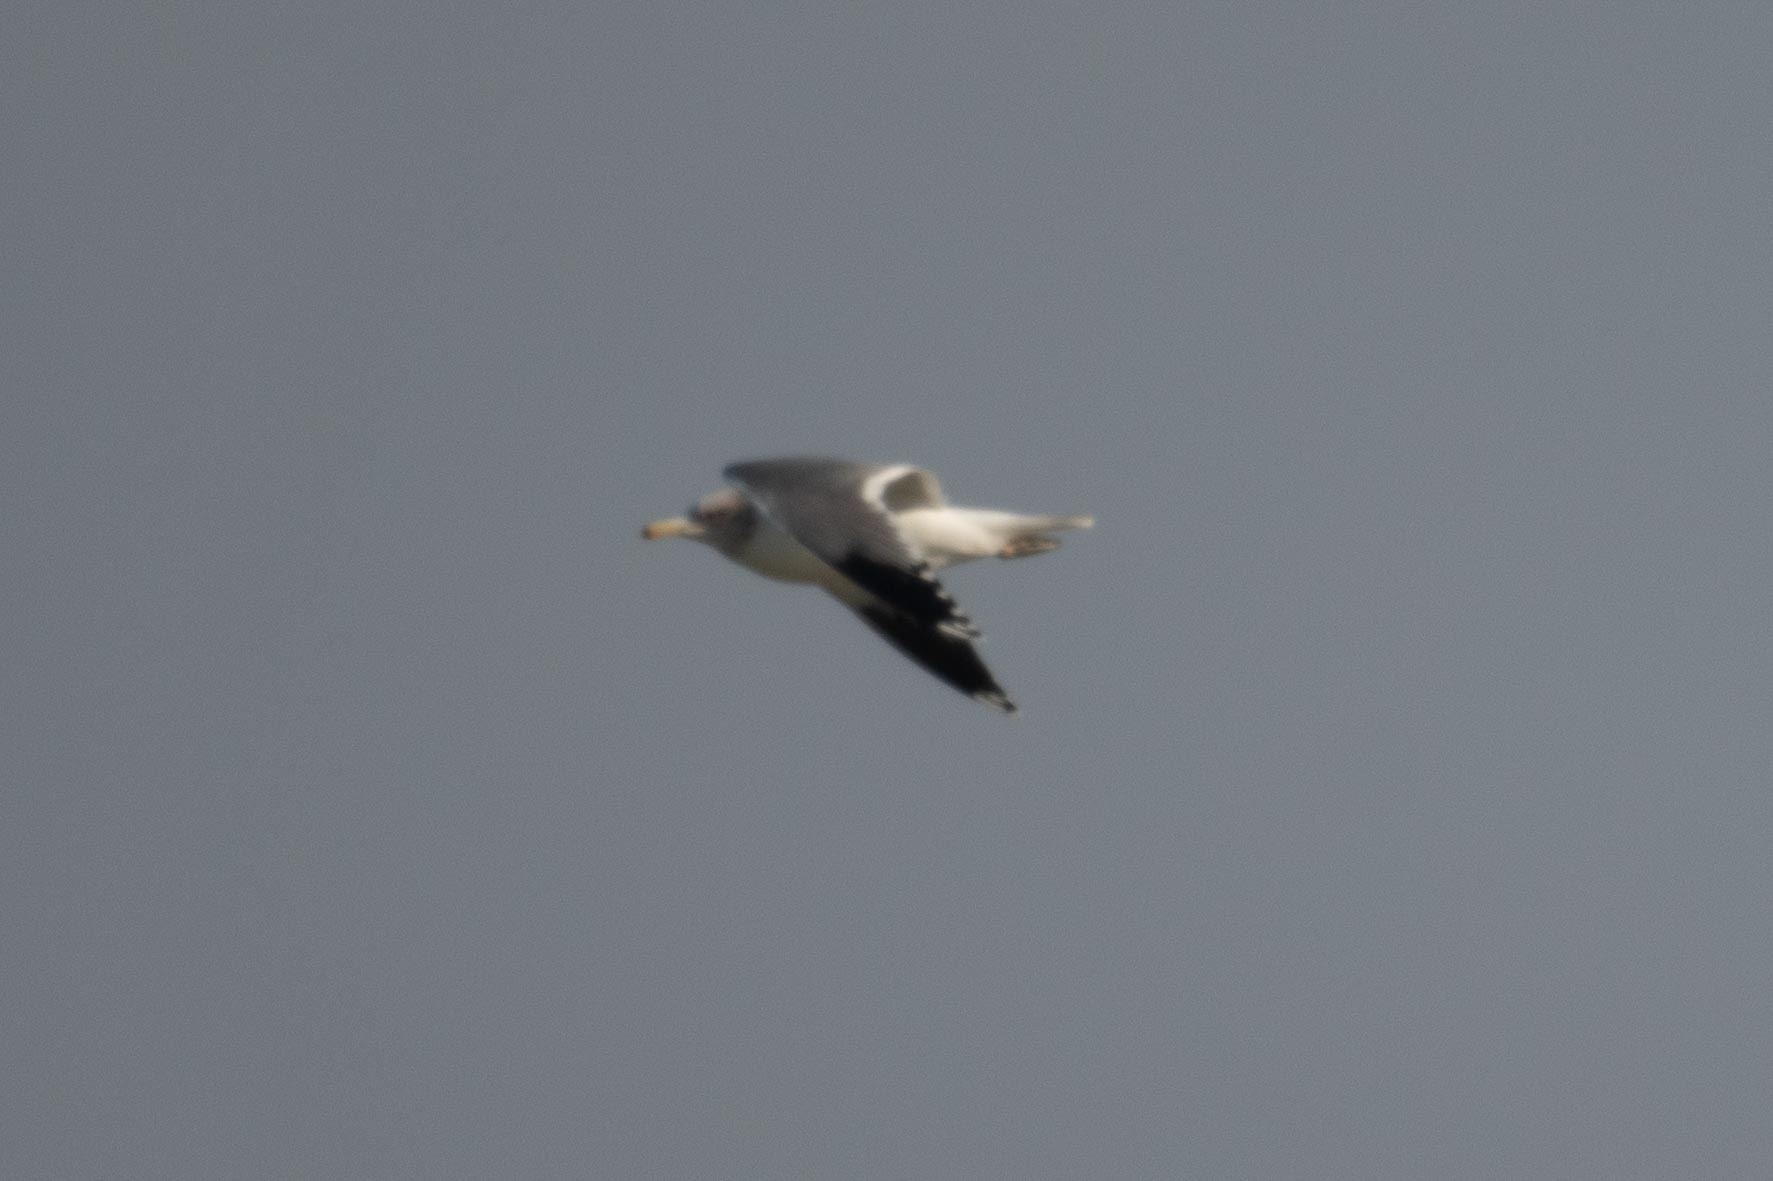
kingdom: Animalia
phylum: Chordata
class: Aves
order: Charadriiformes
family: Laridae
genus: Larus
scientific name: Larus californicus
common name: California gull
